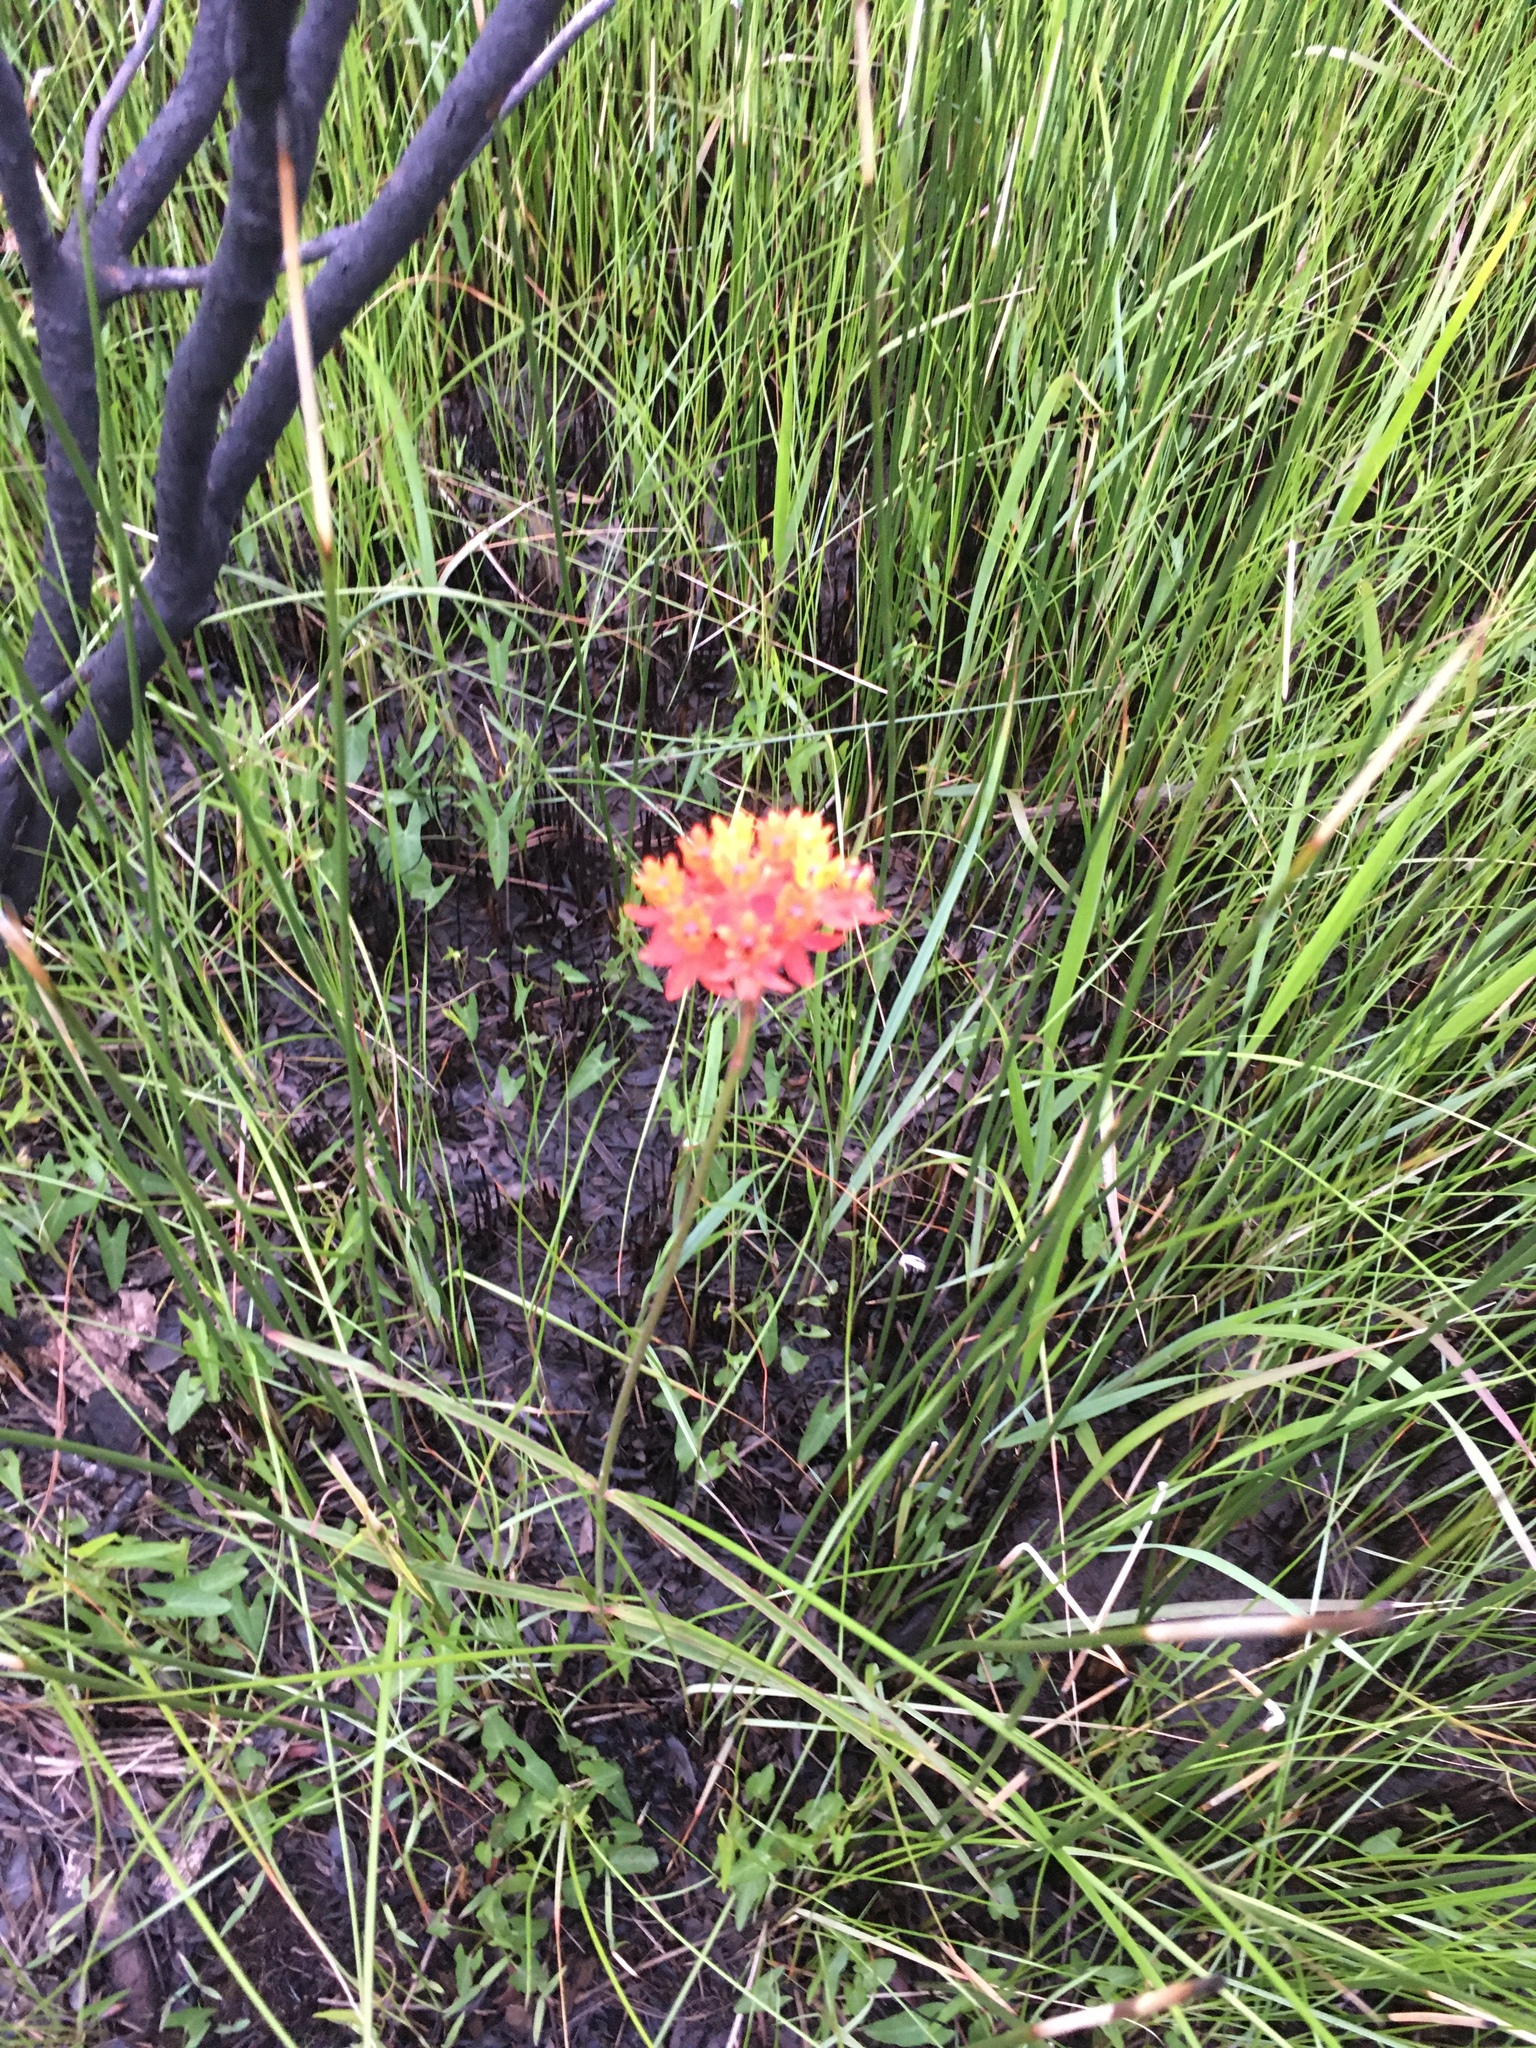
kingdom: Plantae
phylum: Tracheophyta
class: Magnoliopsida
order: Gentianales
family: Apocynaceae
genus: Asclepias
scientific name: Asclepias lanceolata
